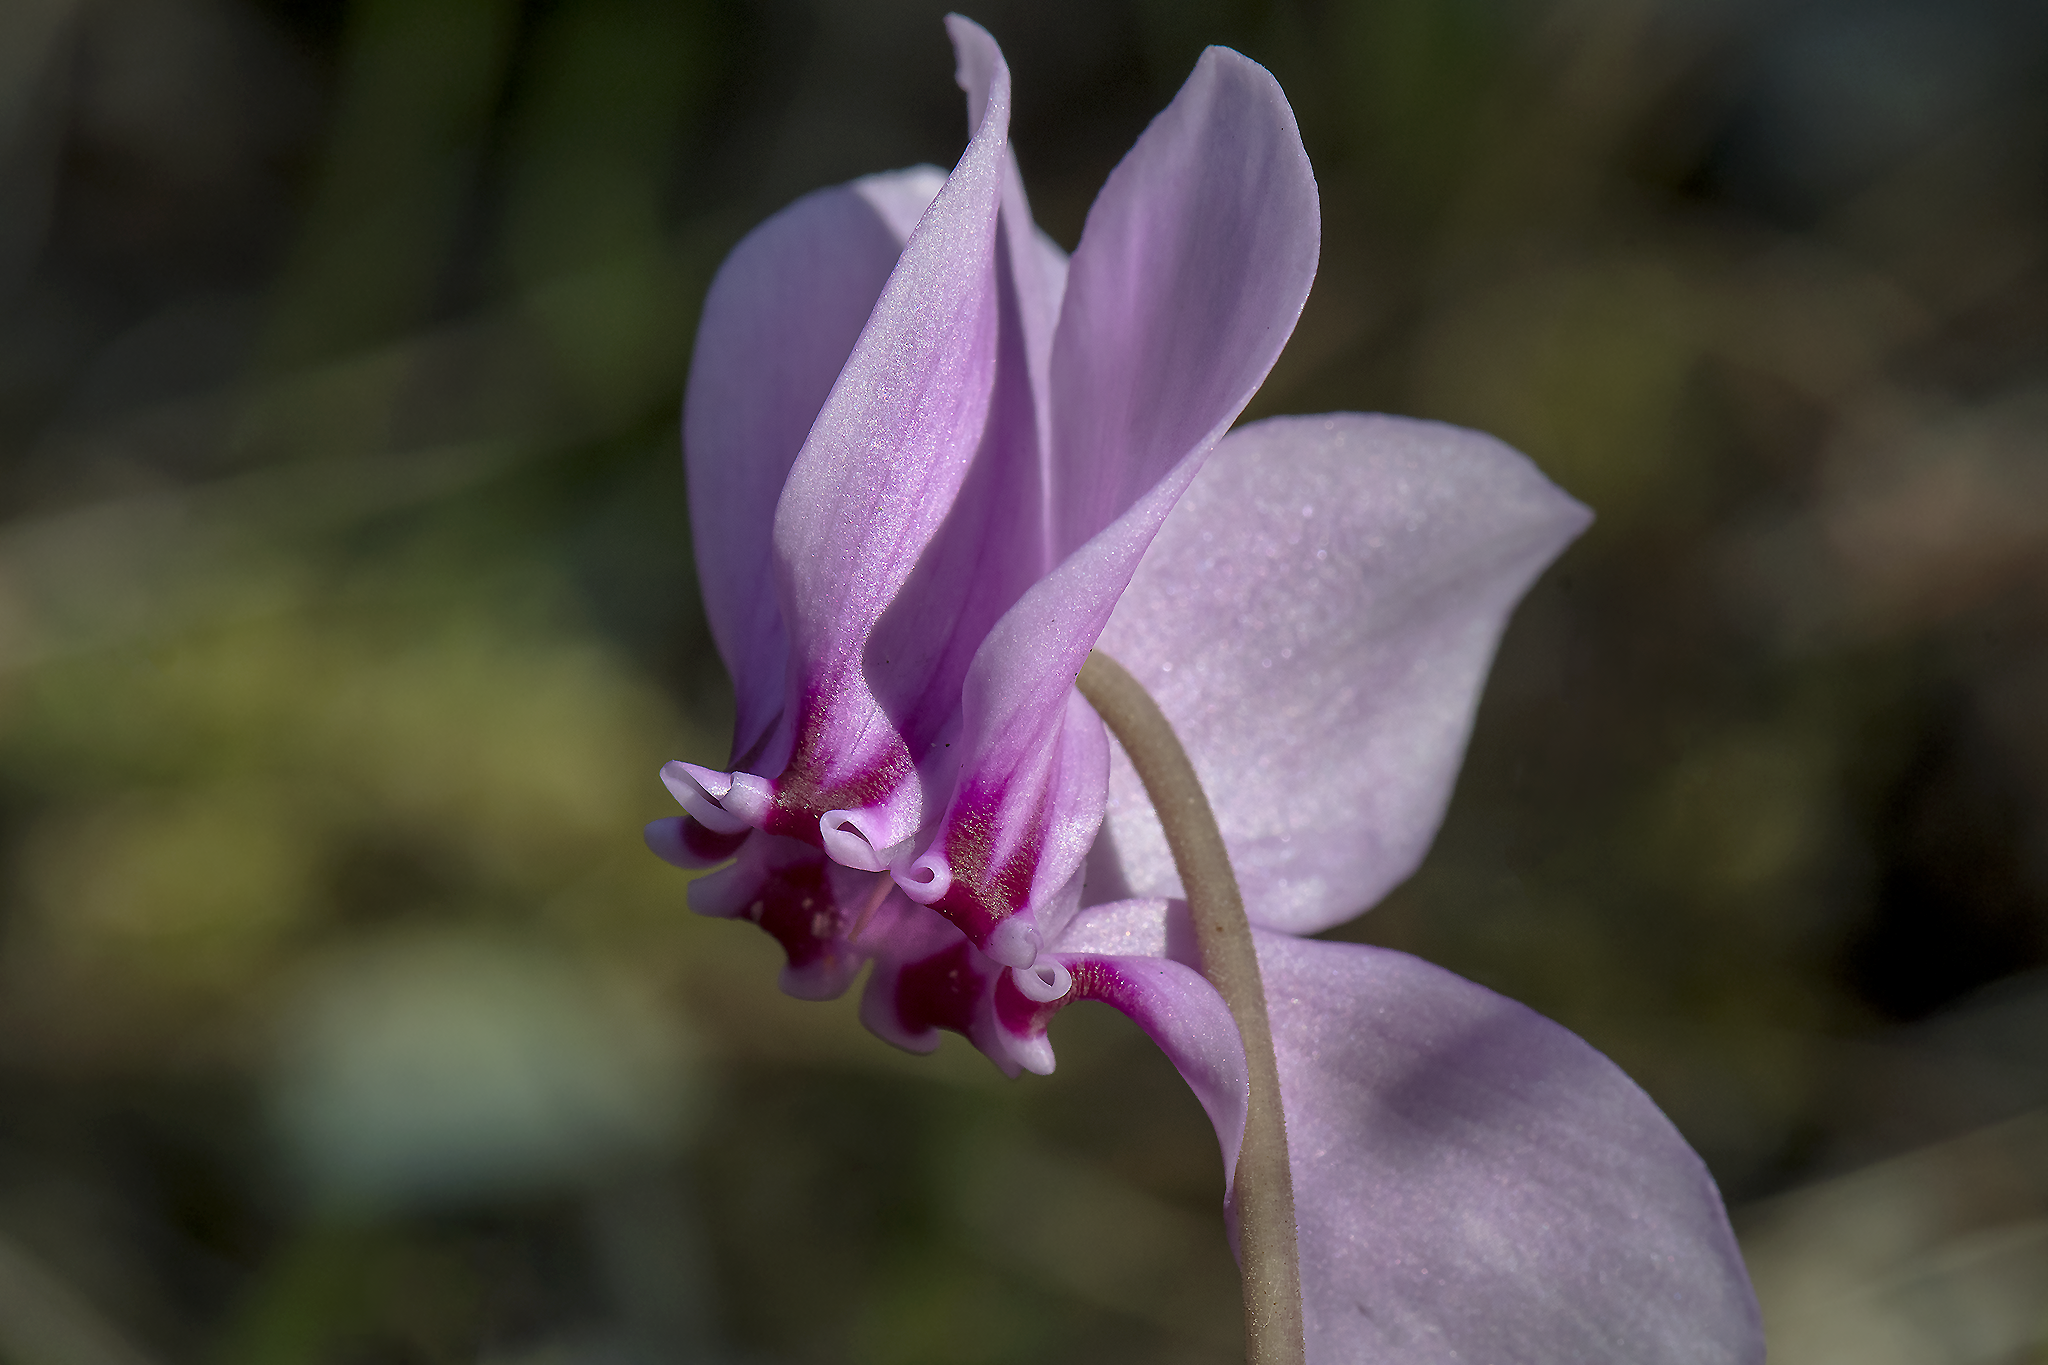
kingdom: Plantae
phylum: Tracheophyta
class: Magnoliopsida
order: Ericales
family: Primulaceae
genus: Cyclamen
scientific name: Cyclamen hederifolium
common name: Sowbread
